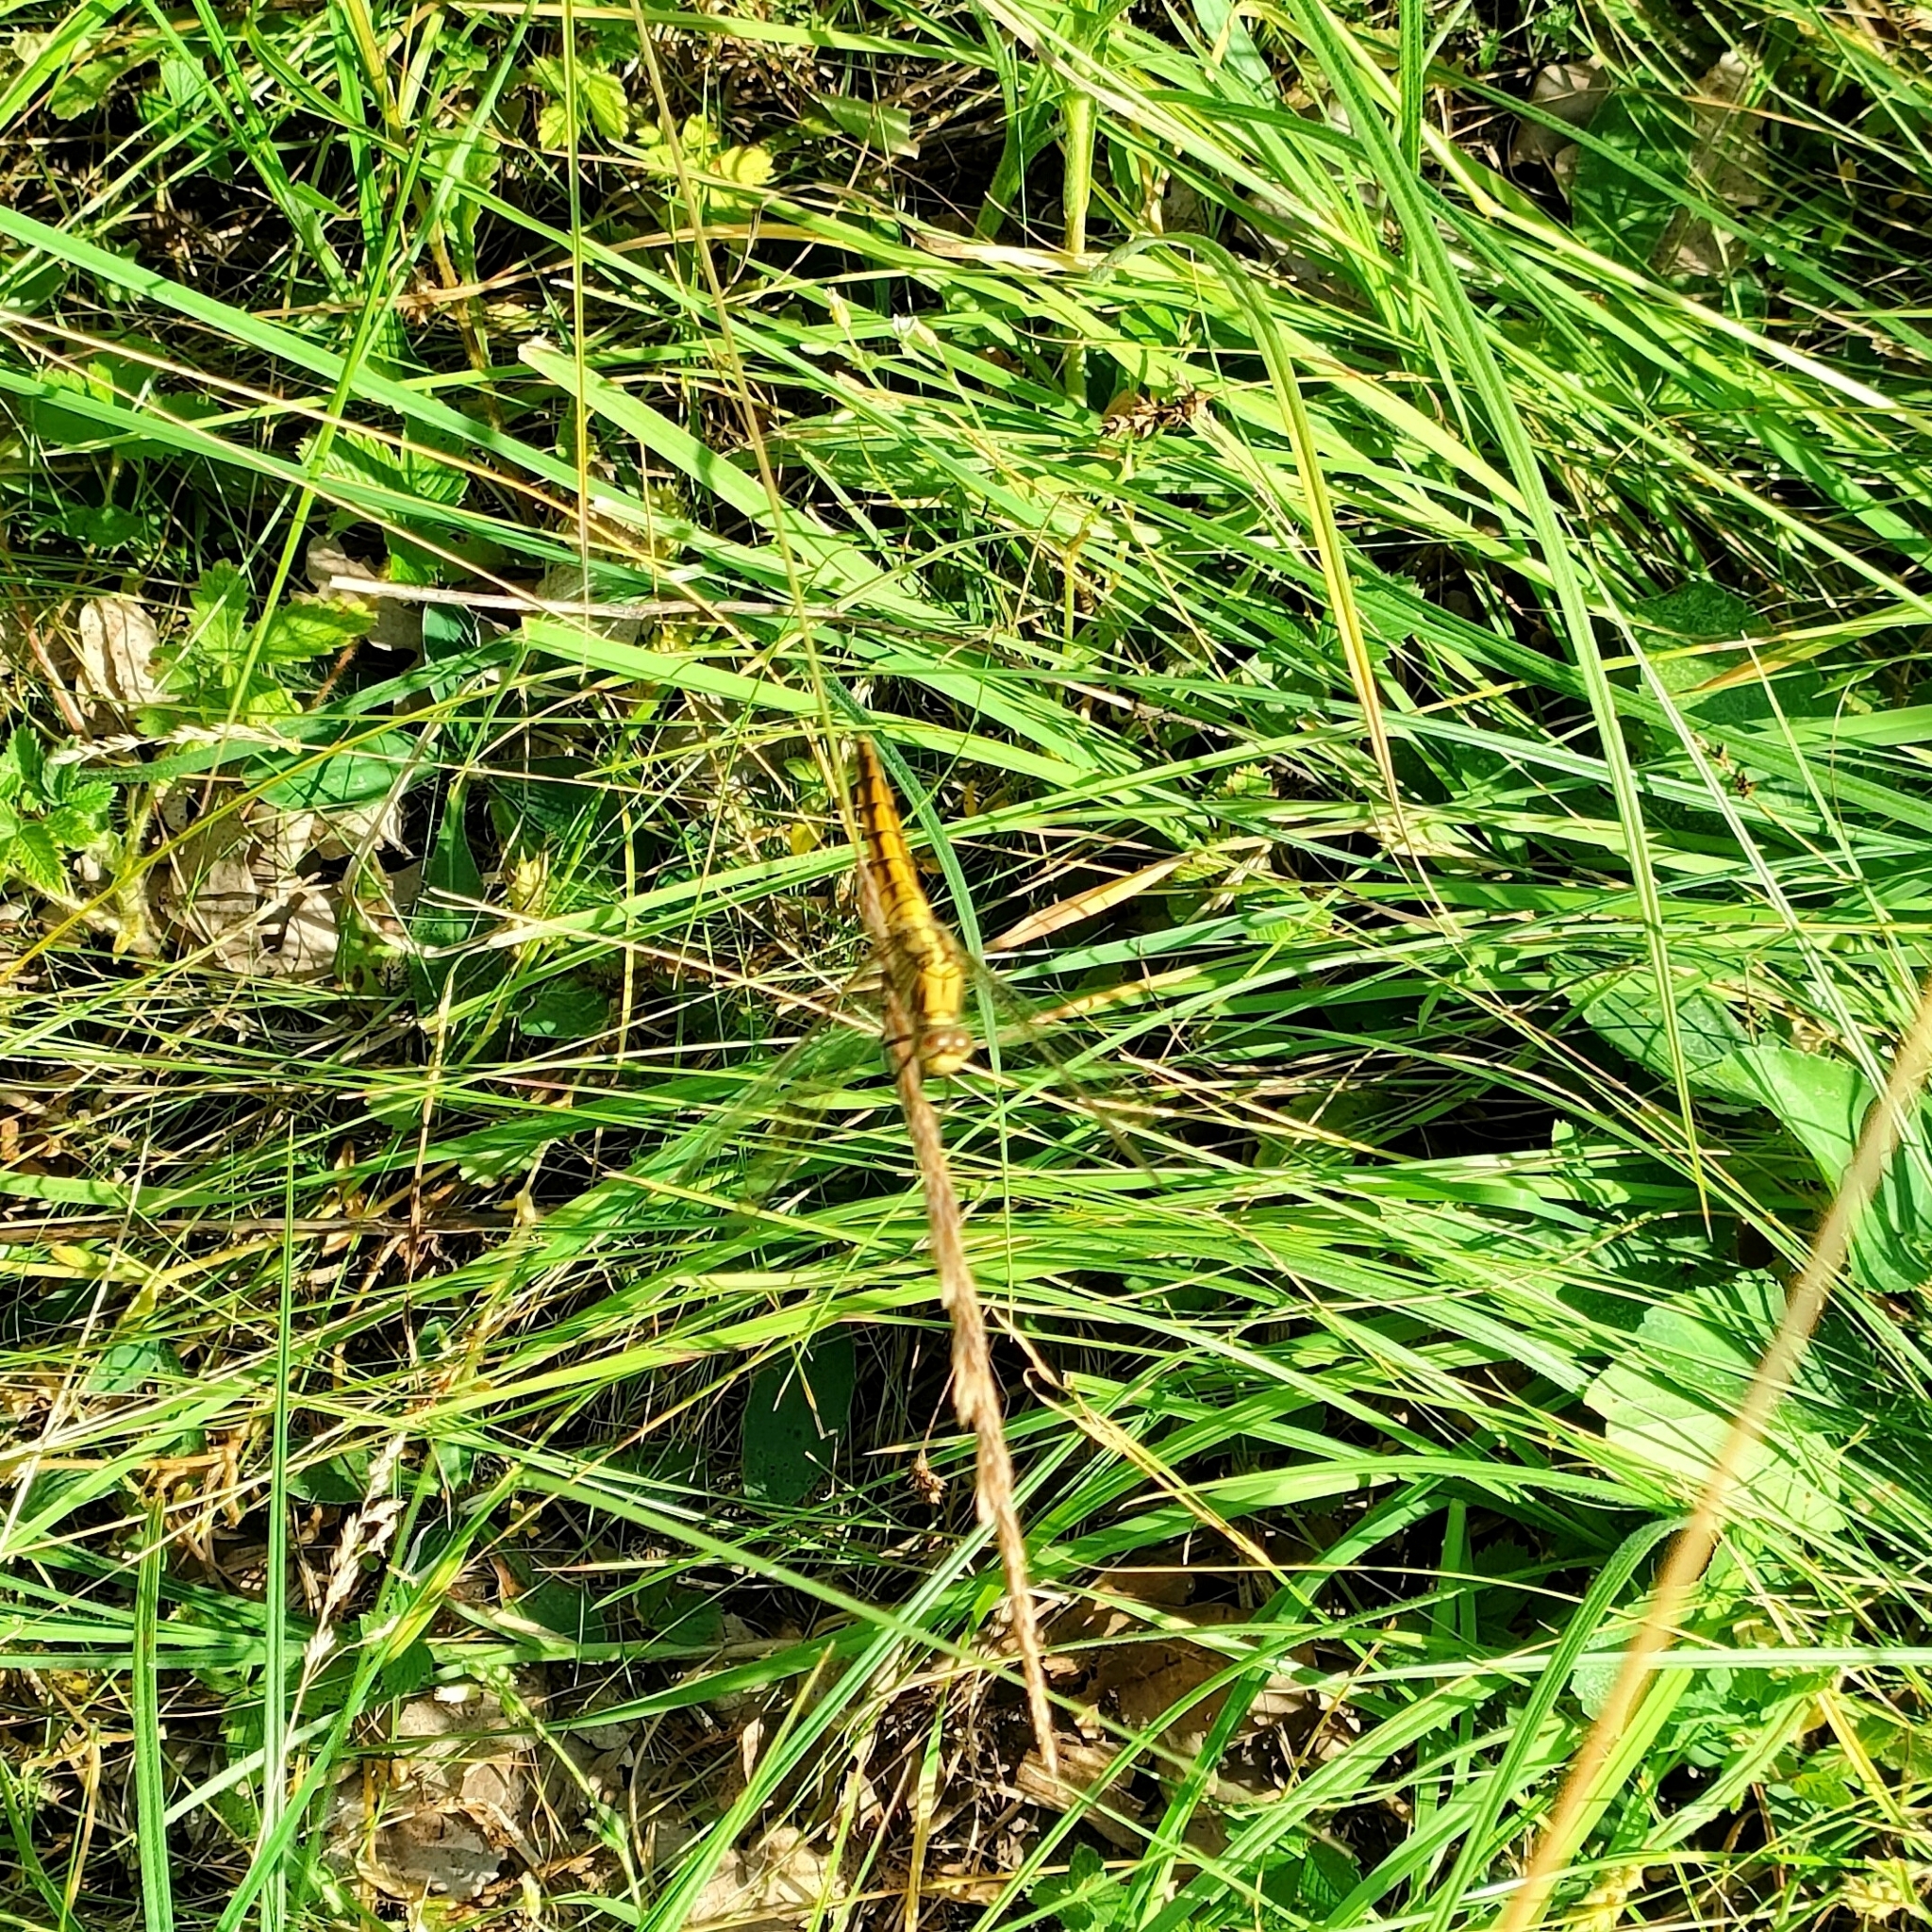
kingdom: Animalia
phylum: Arthropoda
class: Insecta
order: Odonata
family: Libellulidae
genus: Orthetrum
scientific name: Orthetrum cancellatum
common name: Black-tailed skimmer
